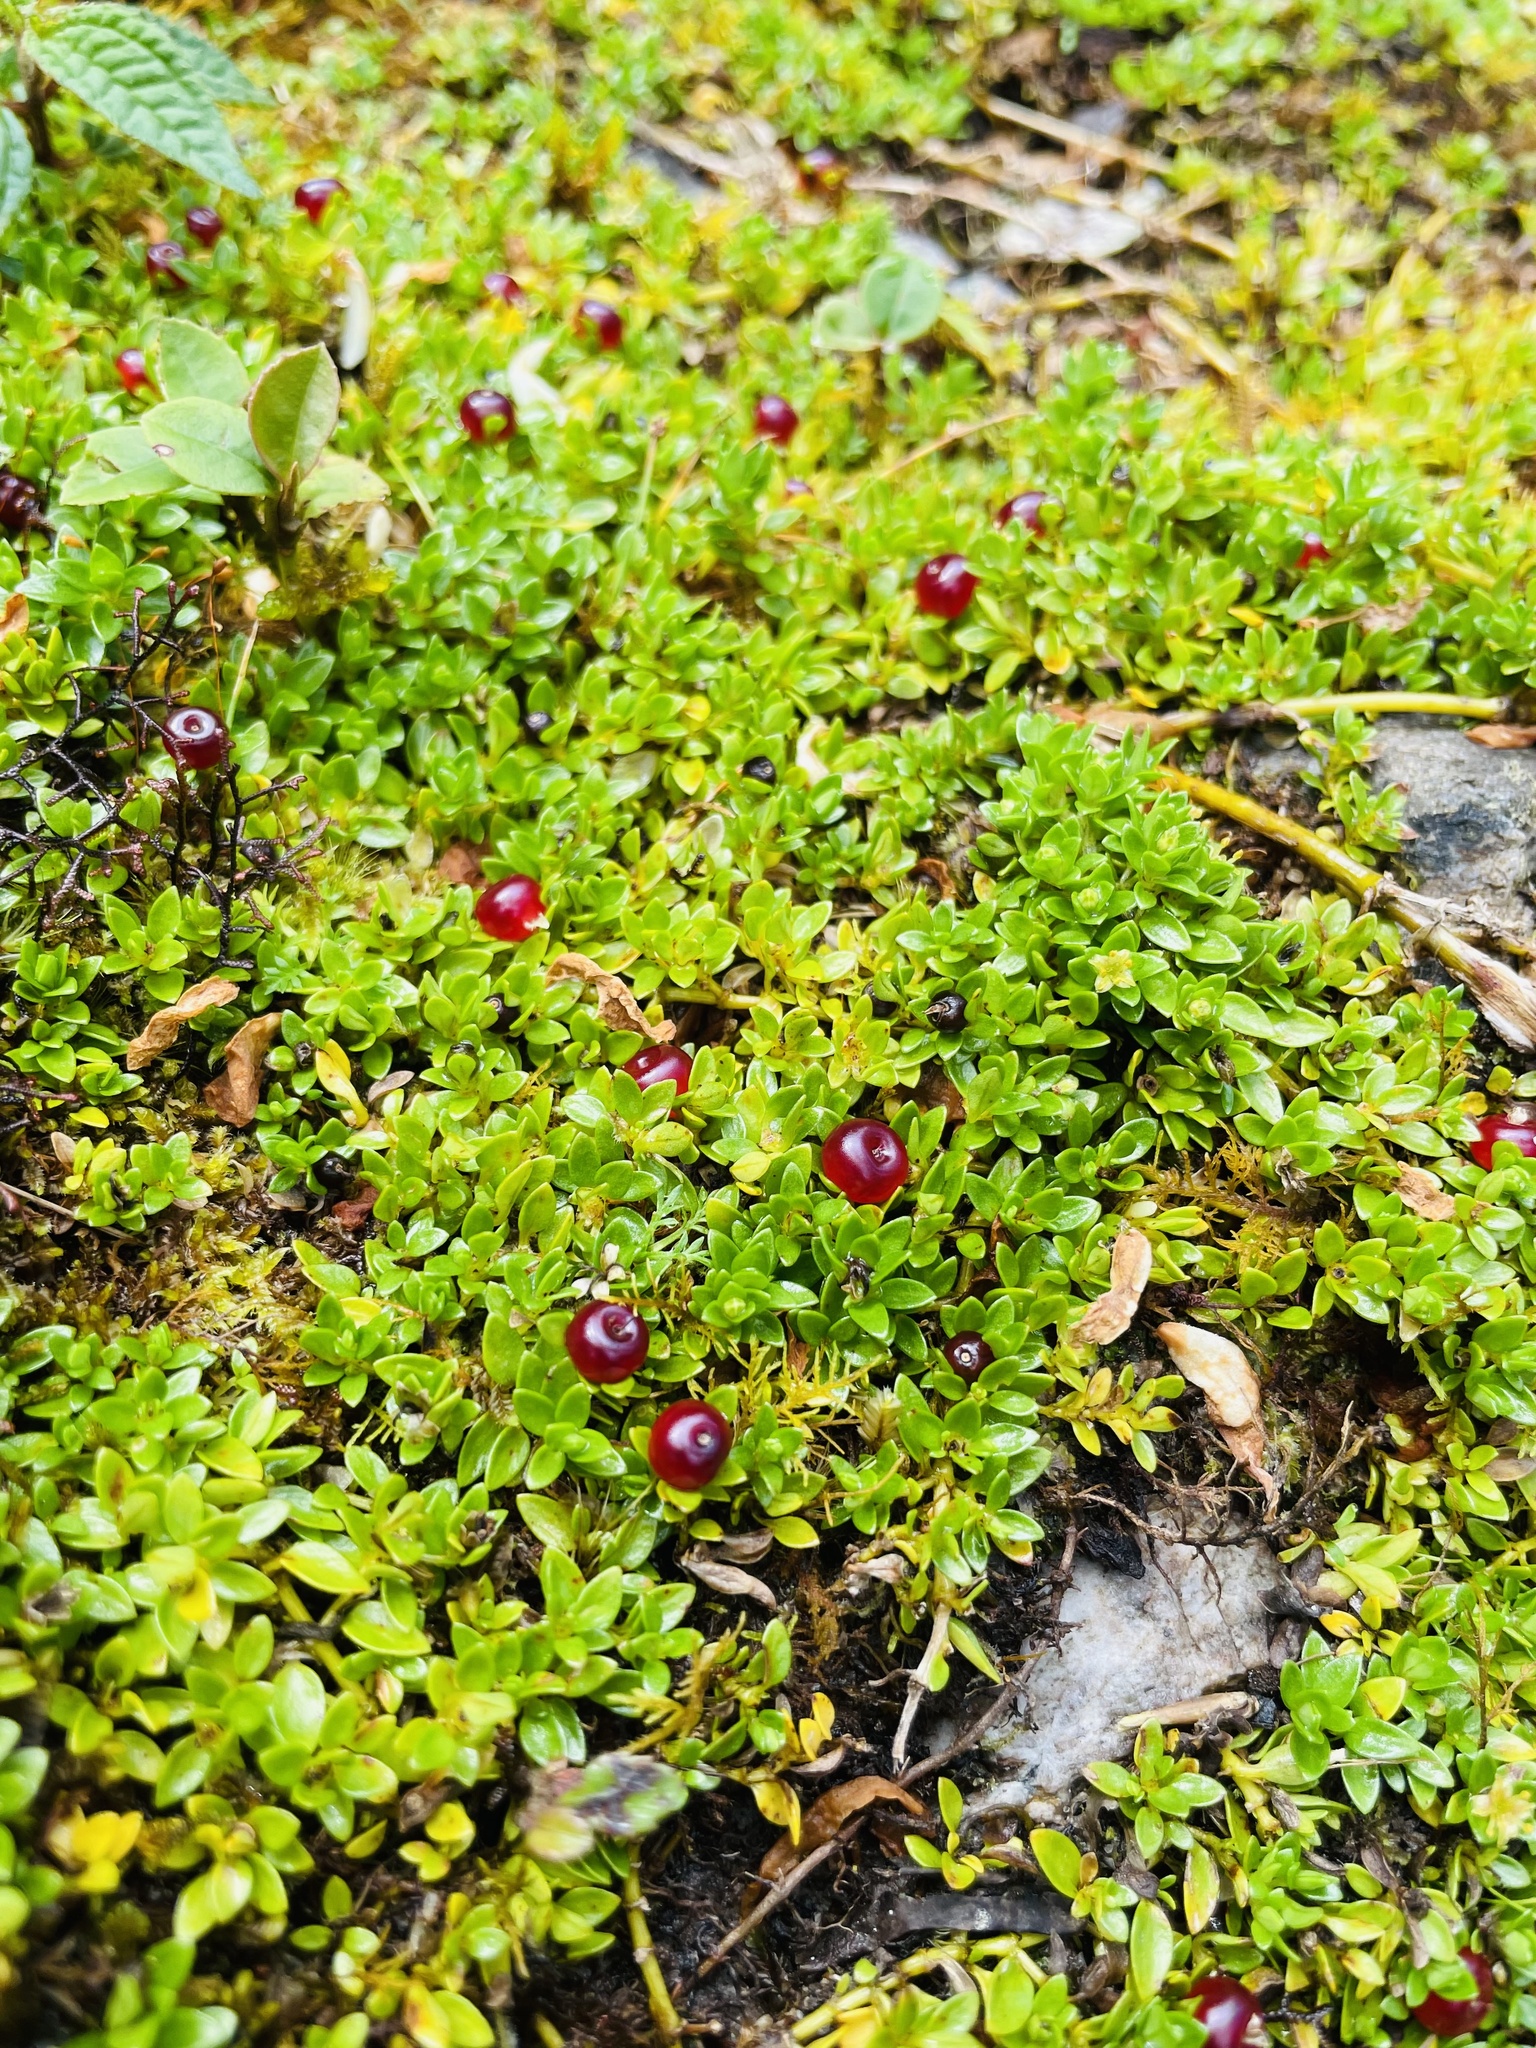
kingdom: Plantae
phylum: Tracheophyta
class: Magnoliopsida
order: Gentianales
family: Rubiaceae
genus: Nertera
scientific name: Nertera granadensis
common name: Beadplant
